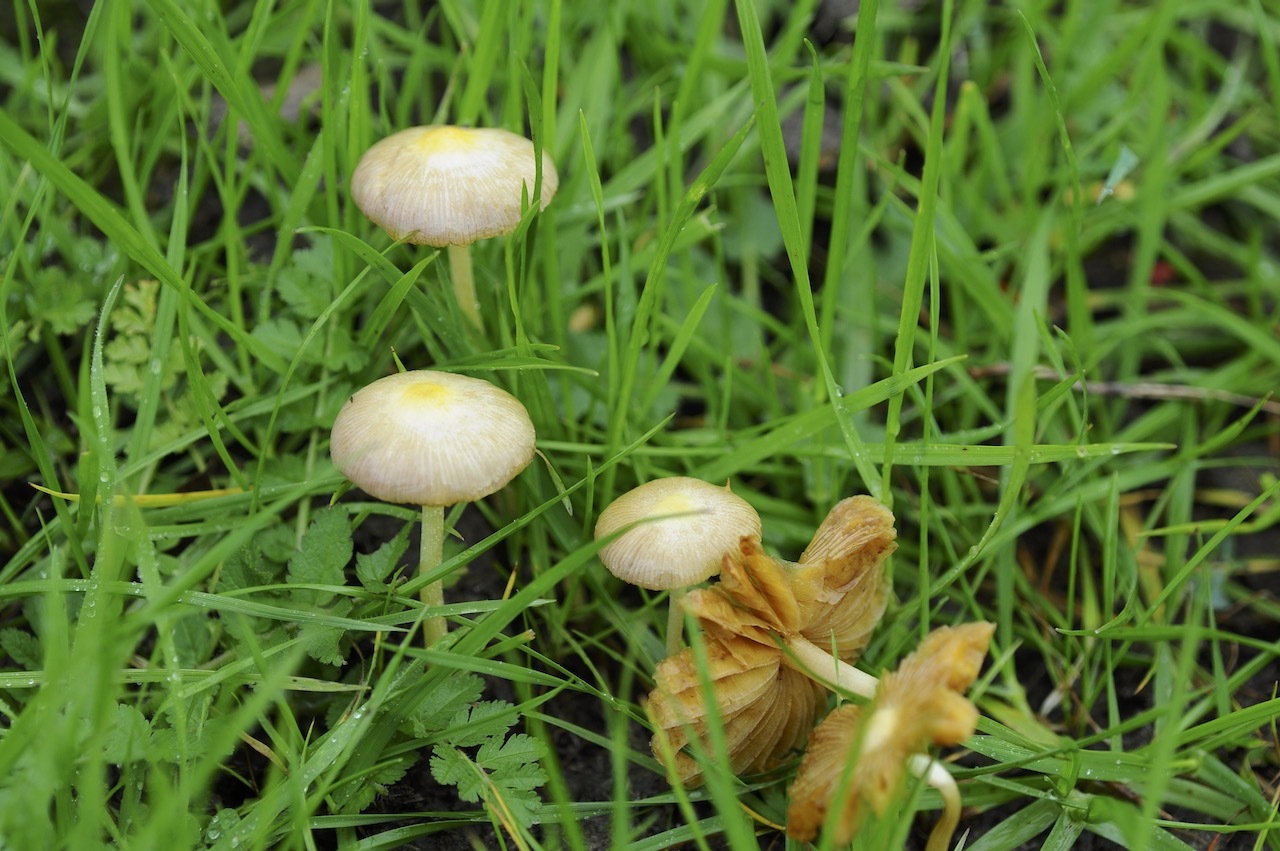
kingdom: Fungi
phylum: Basidiomycota
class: Agaricomycetes
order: Agaricales
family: Bolbitiaceae
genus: Bolbitius
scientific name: Bolbitius titubans
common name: Yellow fieldcap
